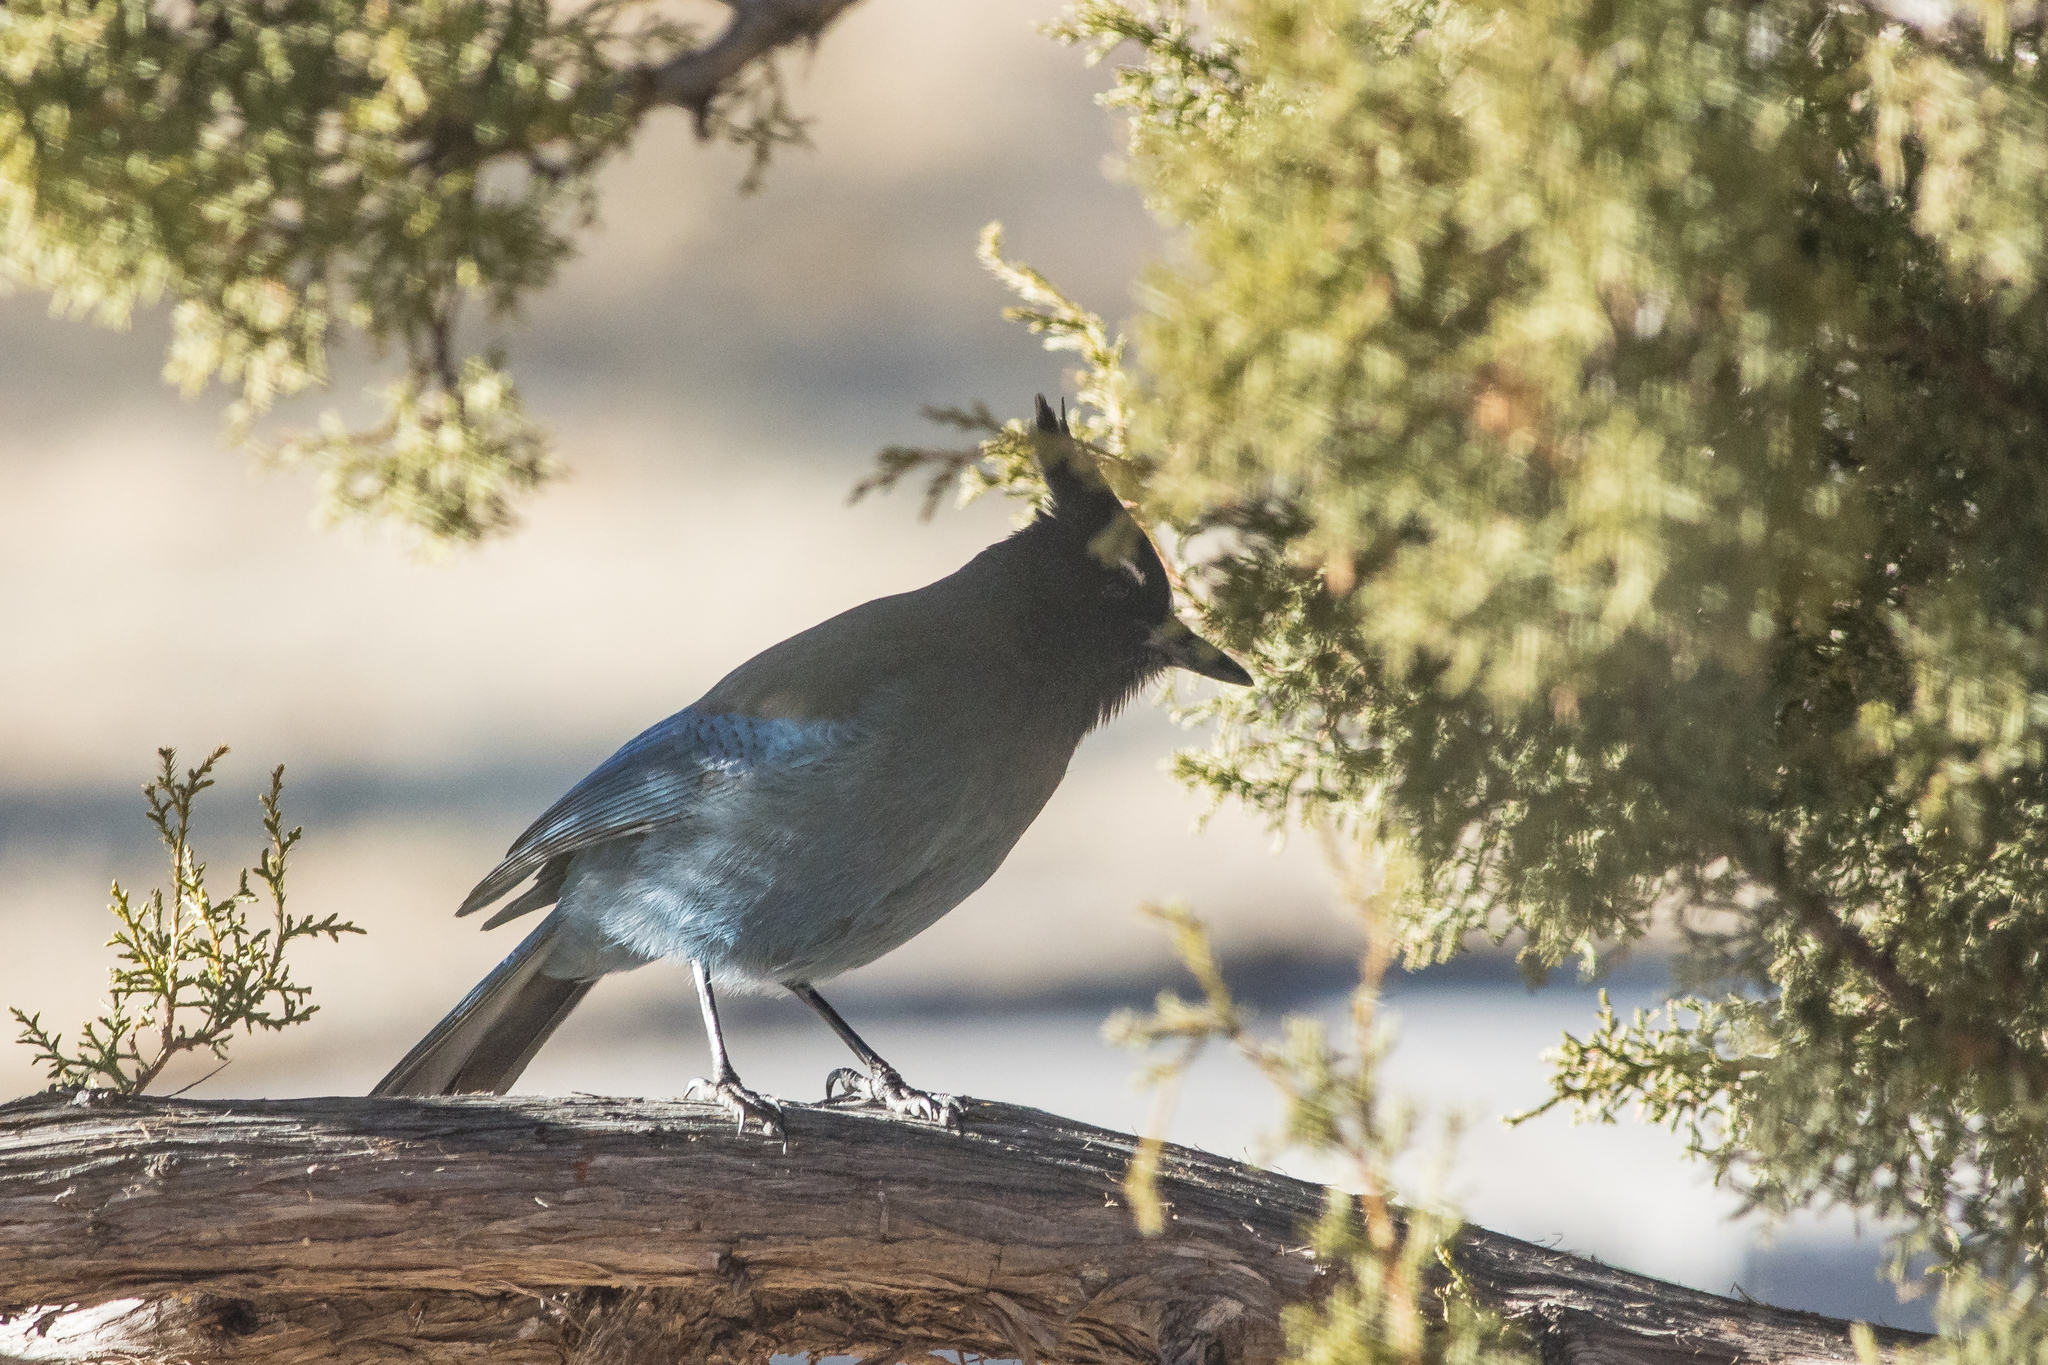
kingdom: Animalia
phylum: Chordata
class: Aves
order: Passeriformes
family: Corvidae
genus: Cyanocitta
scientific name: Cyanocitta stelleri
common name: Steller's jay
